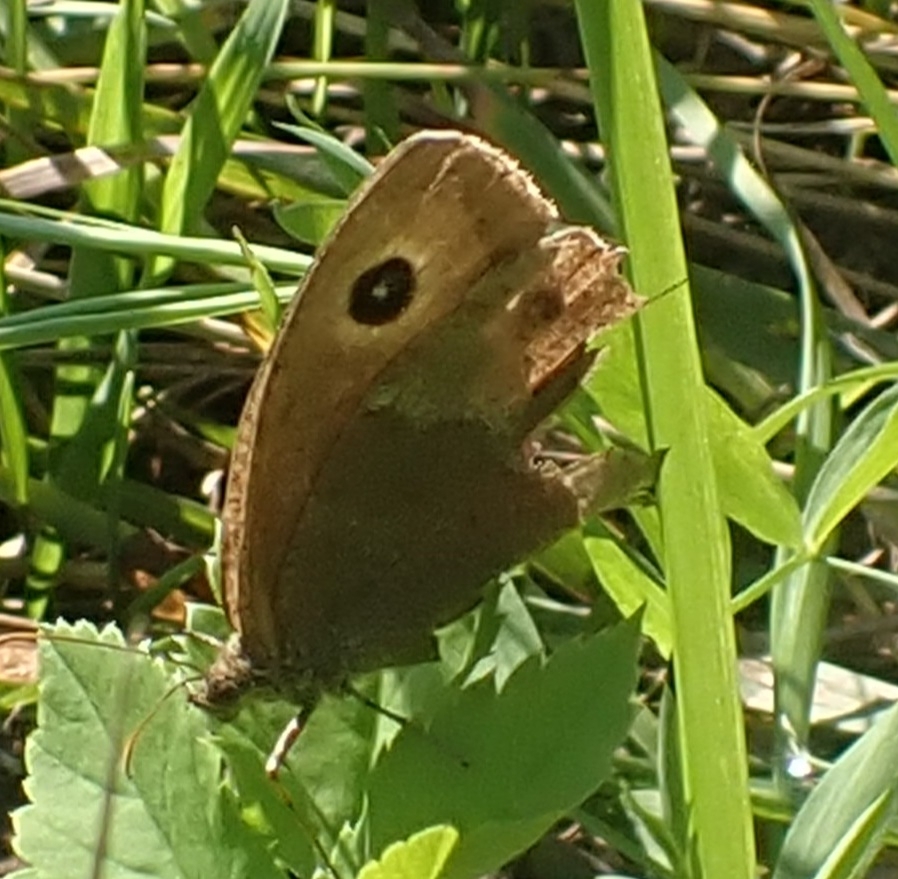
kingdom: Animalia
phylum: Arthropoda
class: Insecta
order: Lepidoptera
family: Nymphalidae
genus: Minois
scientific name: Minois dryas
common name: Dryad
